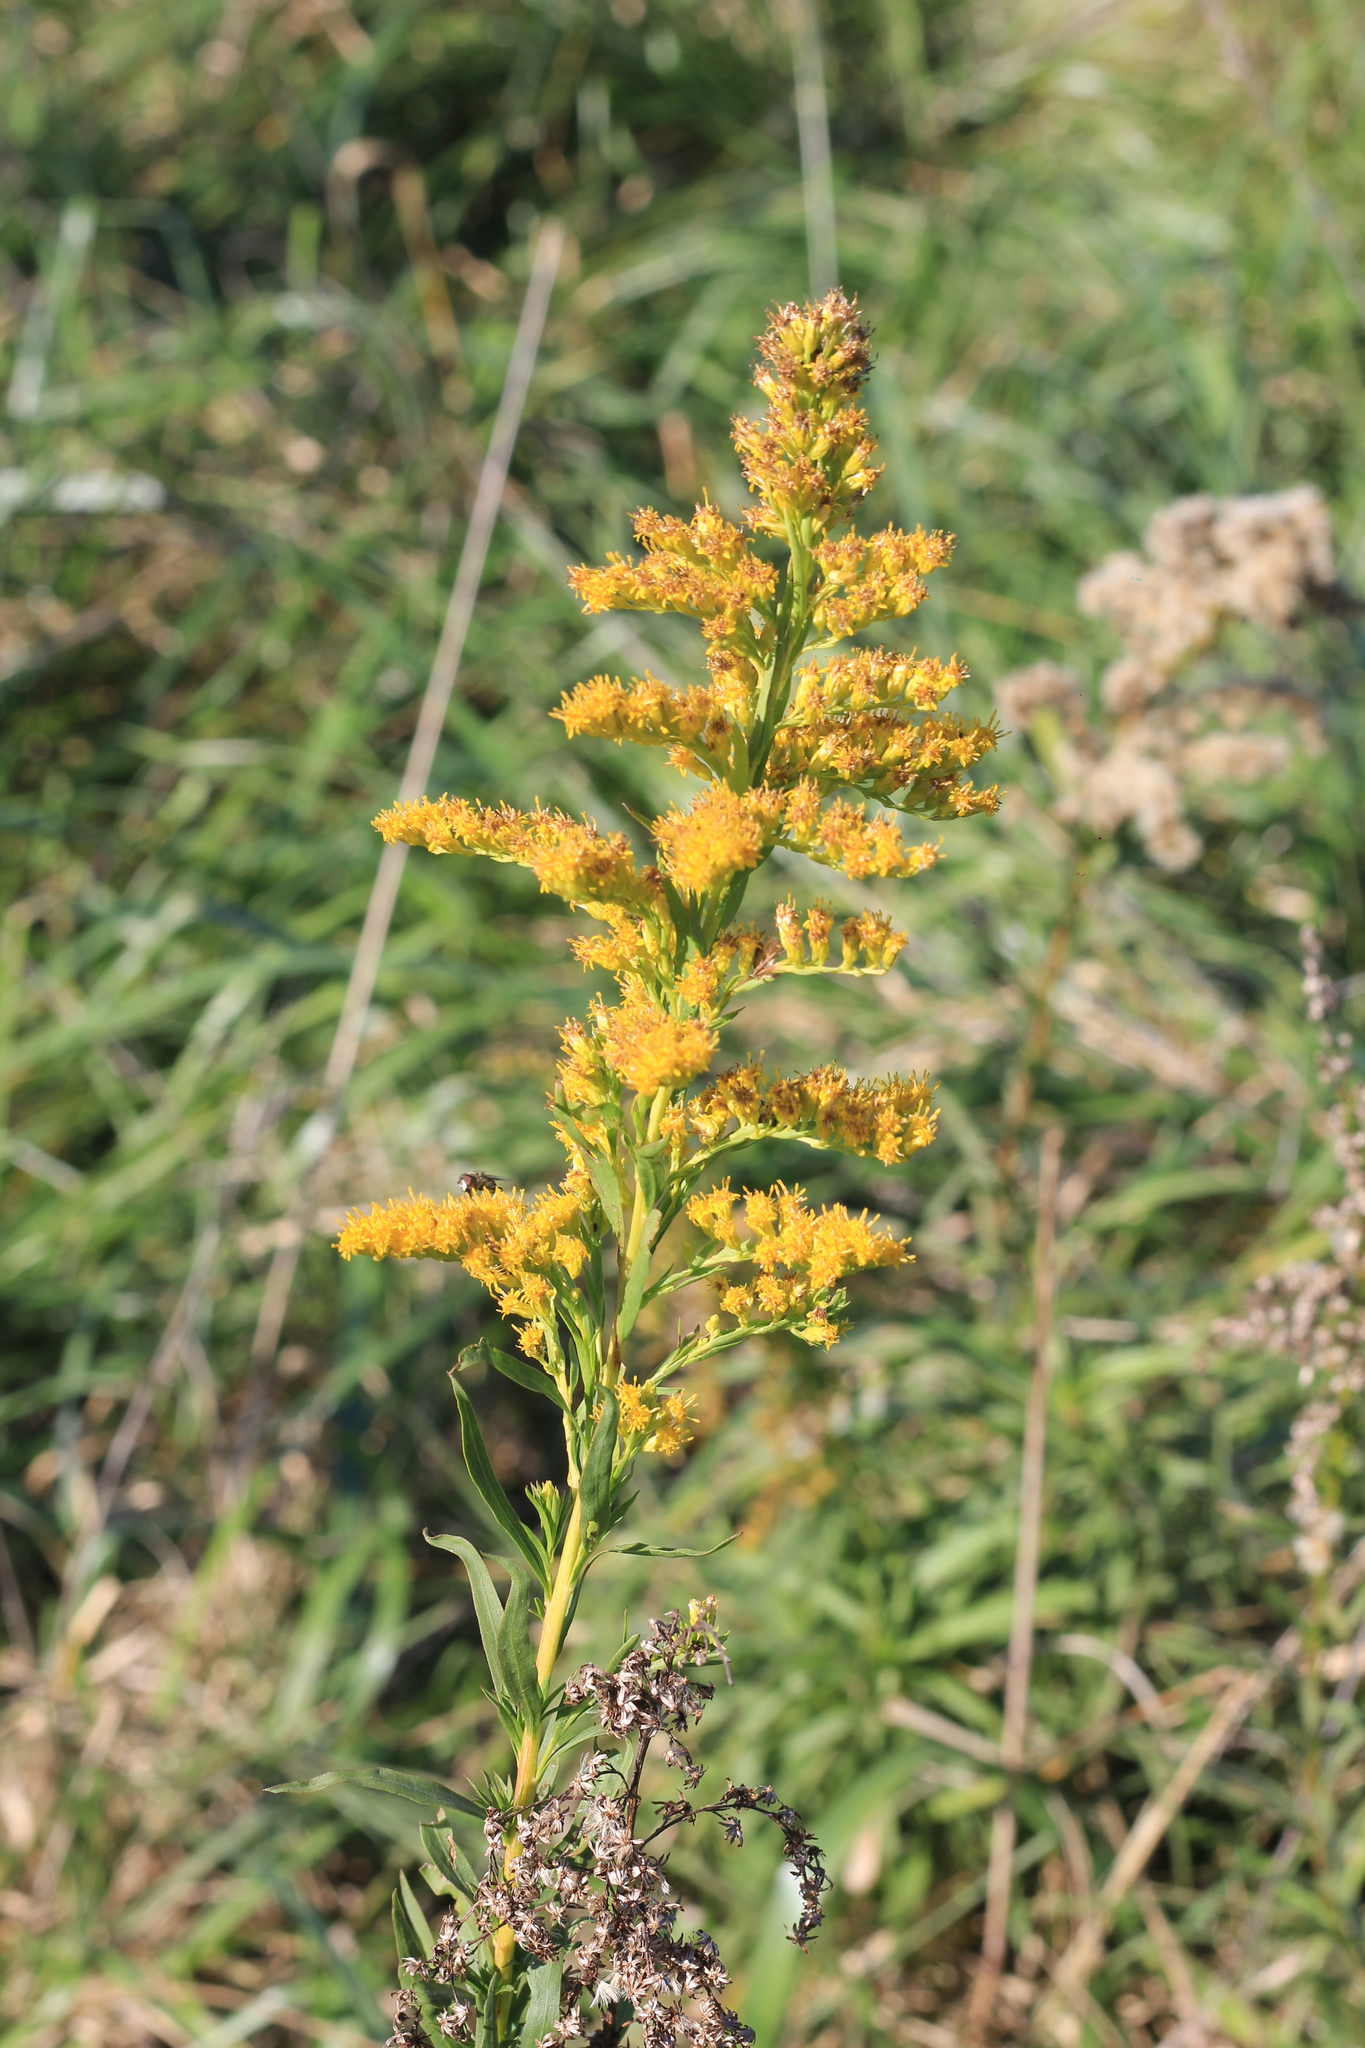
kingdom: Plantae
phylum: Tracheophyta
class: Magnoliopsida
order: Asterales
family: Asteraceae
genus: Solidago
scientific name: Solidago chilensis
